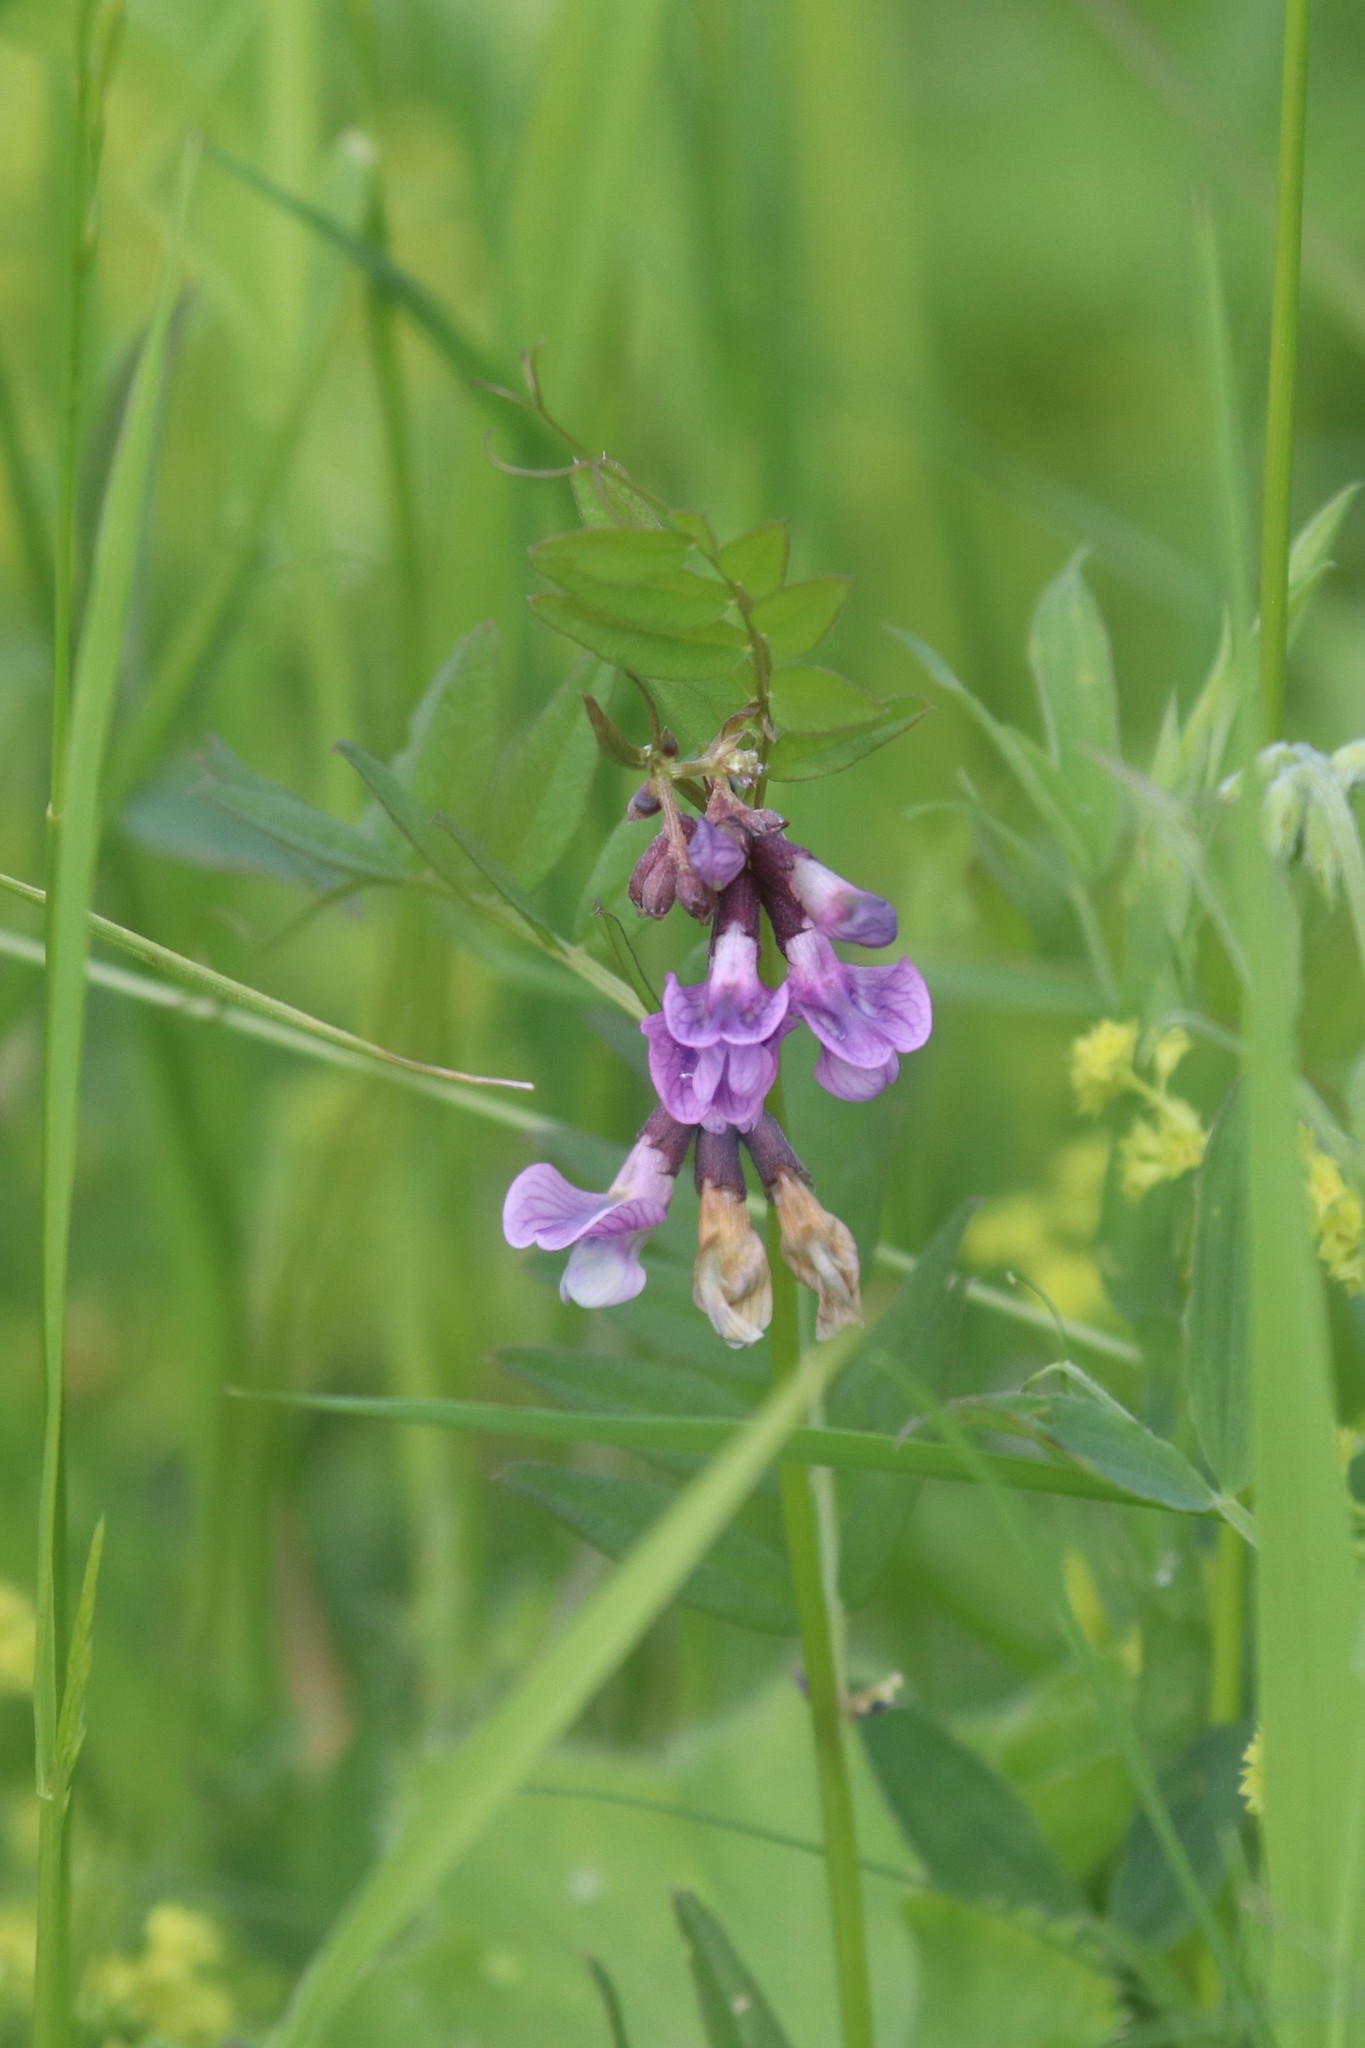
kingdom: Plantae
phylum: Tracheophyta
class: Magnoliopsida
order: Fabales
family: Fabaceae
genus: Vicia
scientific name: Vicia sepium
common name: Bush vetch
